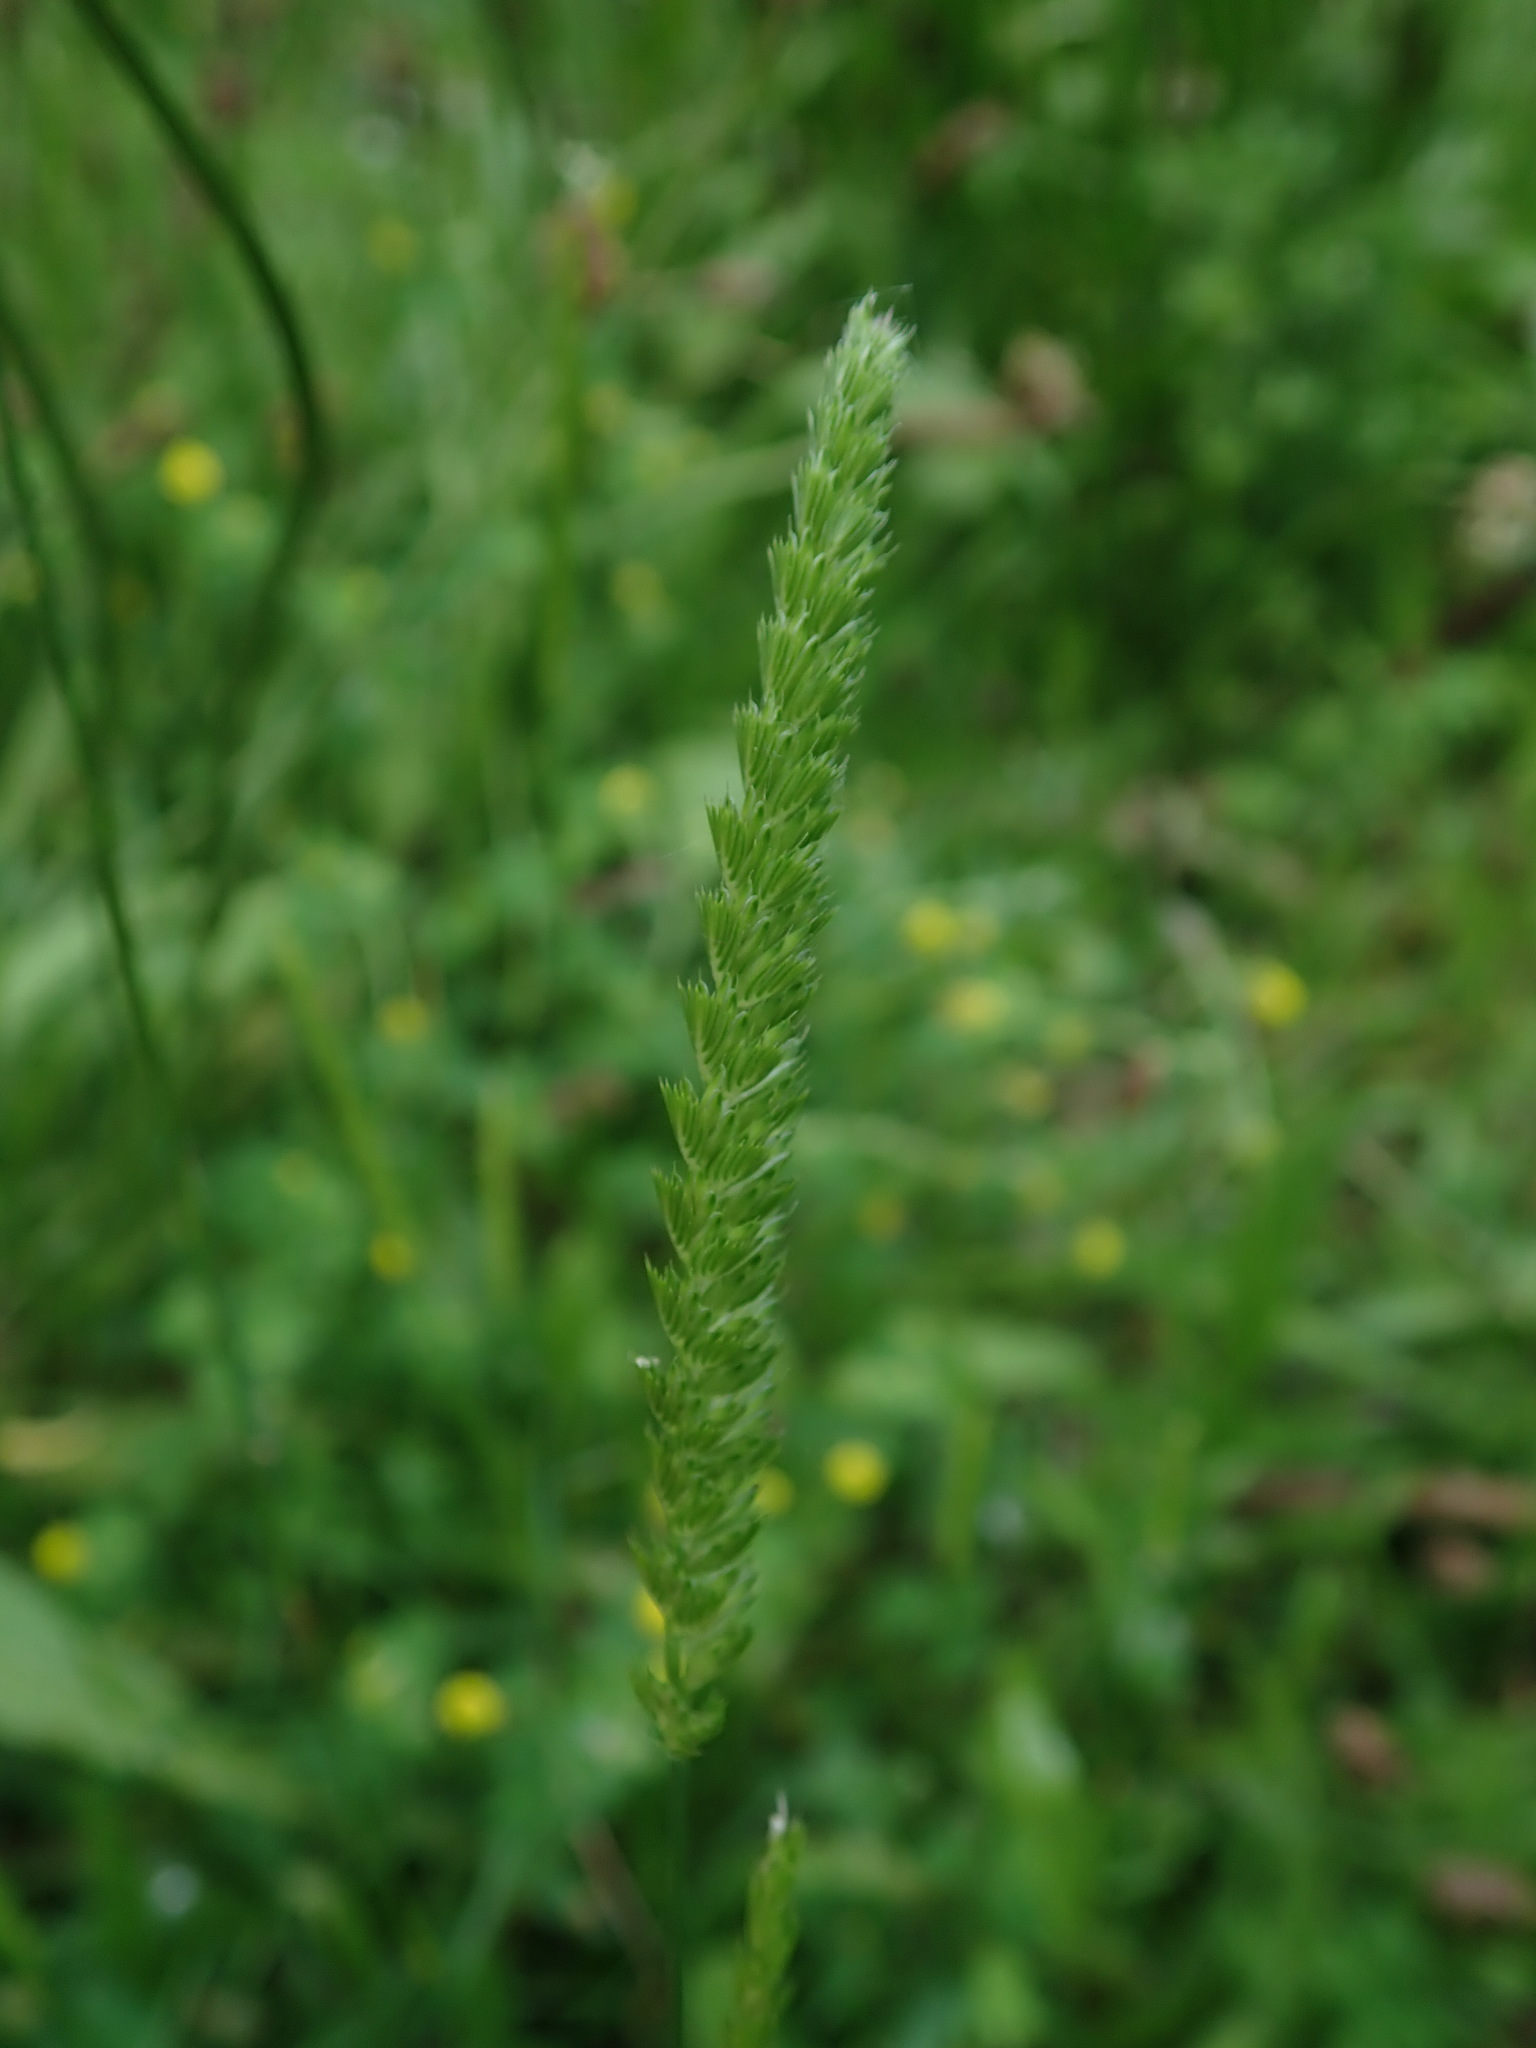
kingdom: Plantae
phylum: Tracheophyta
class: Liliopsida
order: Poales
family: Poaceae
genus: Cynosurus
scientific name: Cynosurus cristatus
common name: Crested dog's-tail
